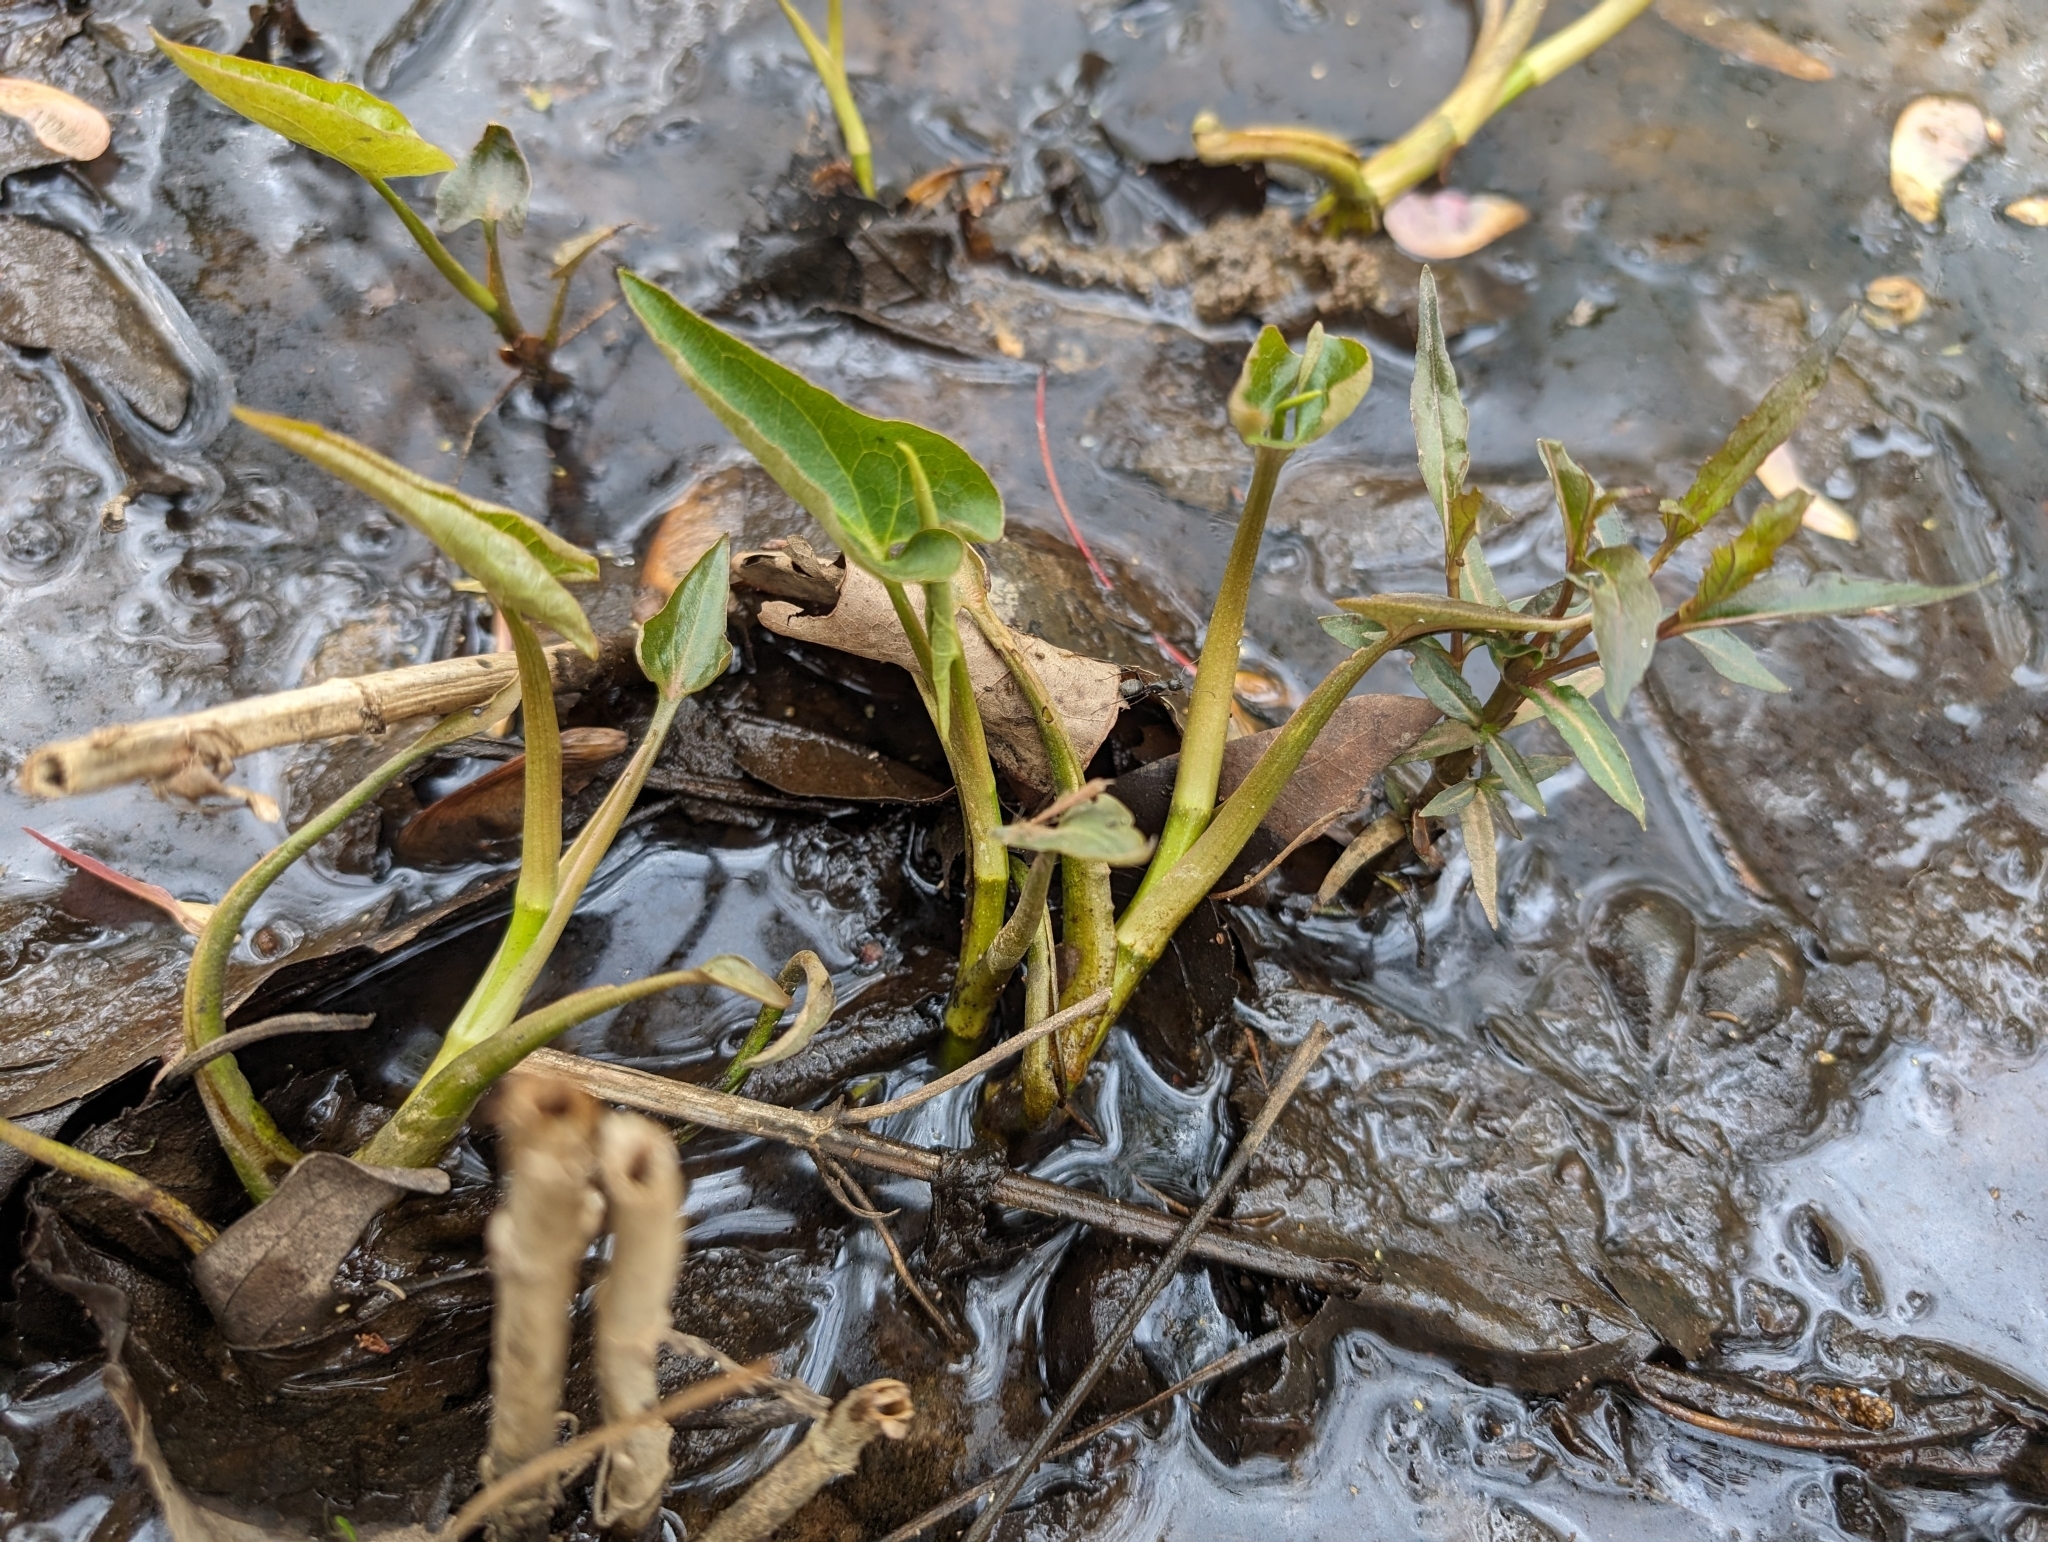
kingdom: Plantae
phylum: Tracheophyta
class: Magnoliopsida
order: Piperales
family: Saururaceae
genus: Saururus
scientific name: Saururus cernuus
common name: Lizard's-tail
